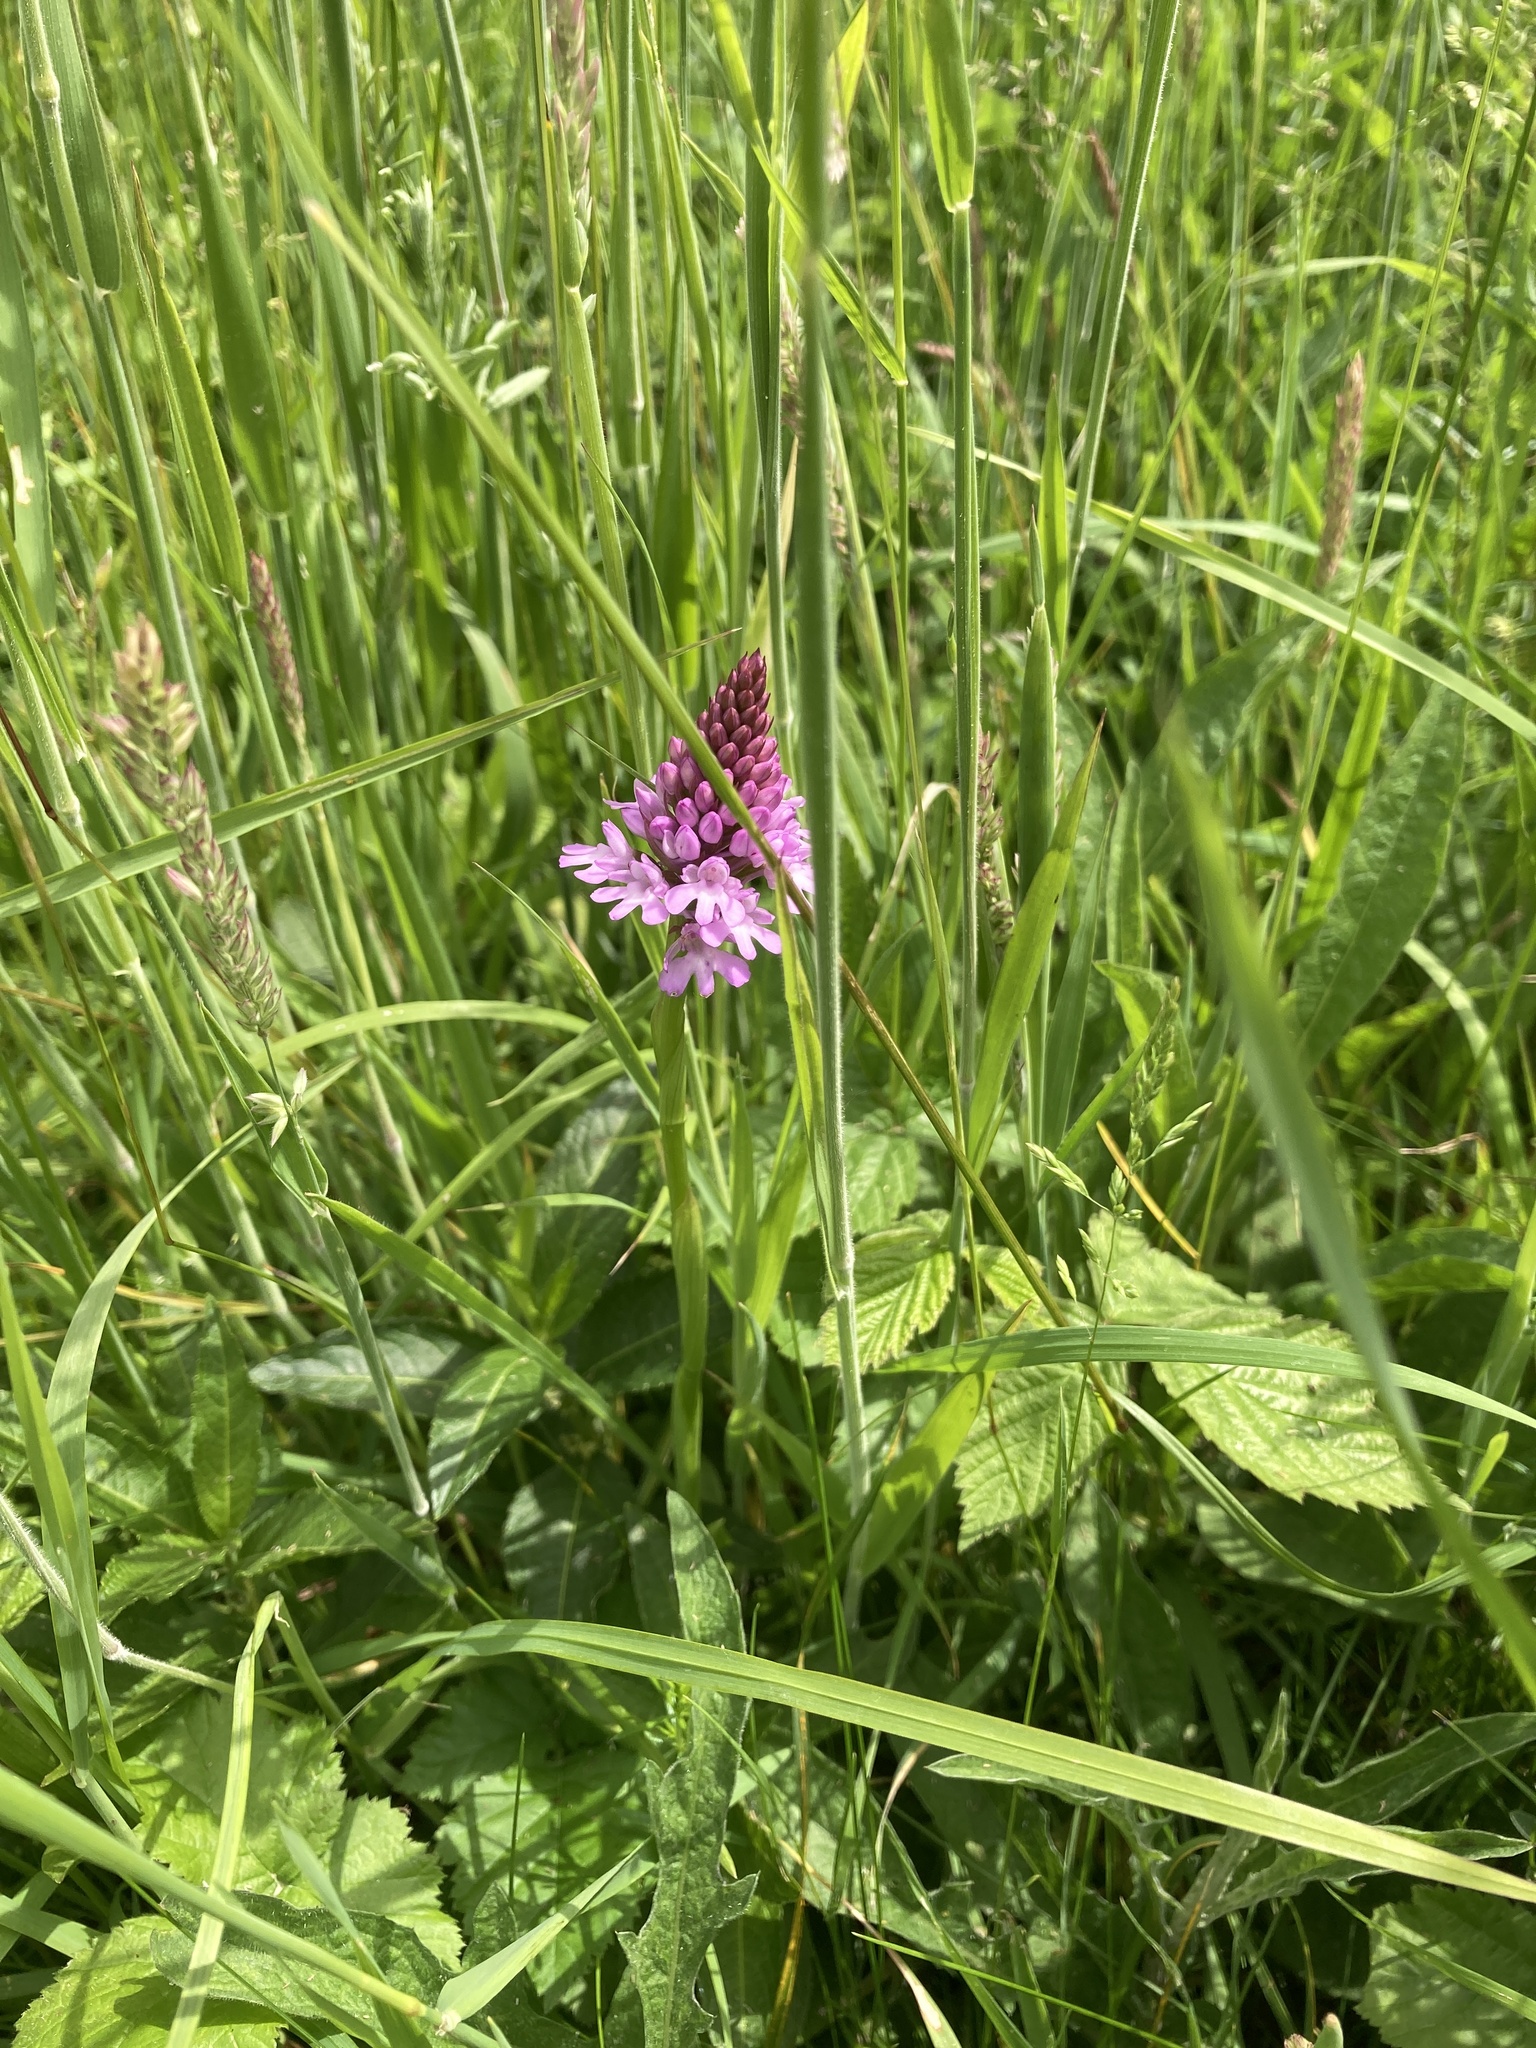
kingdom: Plantae
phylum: Tracheophyta
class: Liliopsida
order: Asparagales
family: Orchidaceae
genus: Anacamptis
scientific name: Anacamptis pyramidalis
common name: Pyramidal orchid
